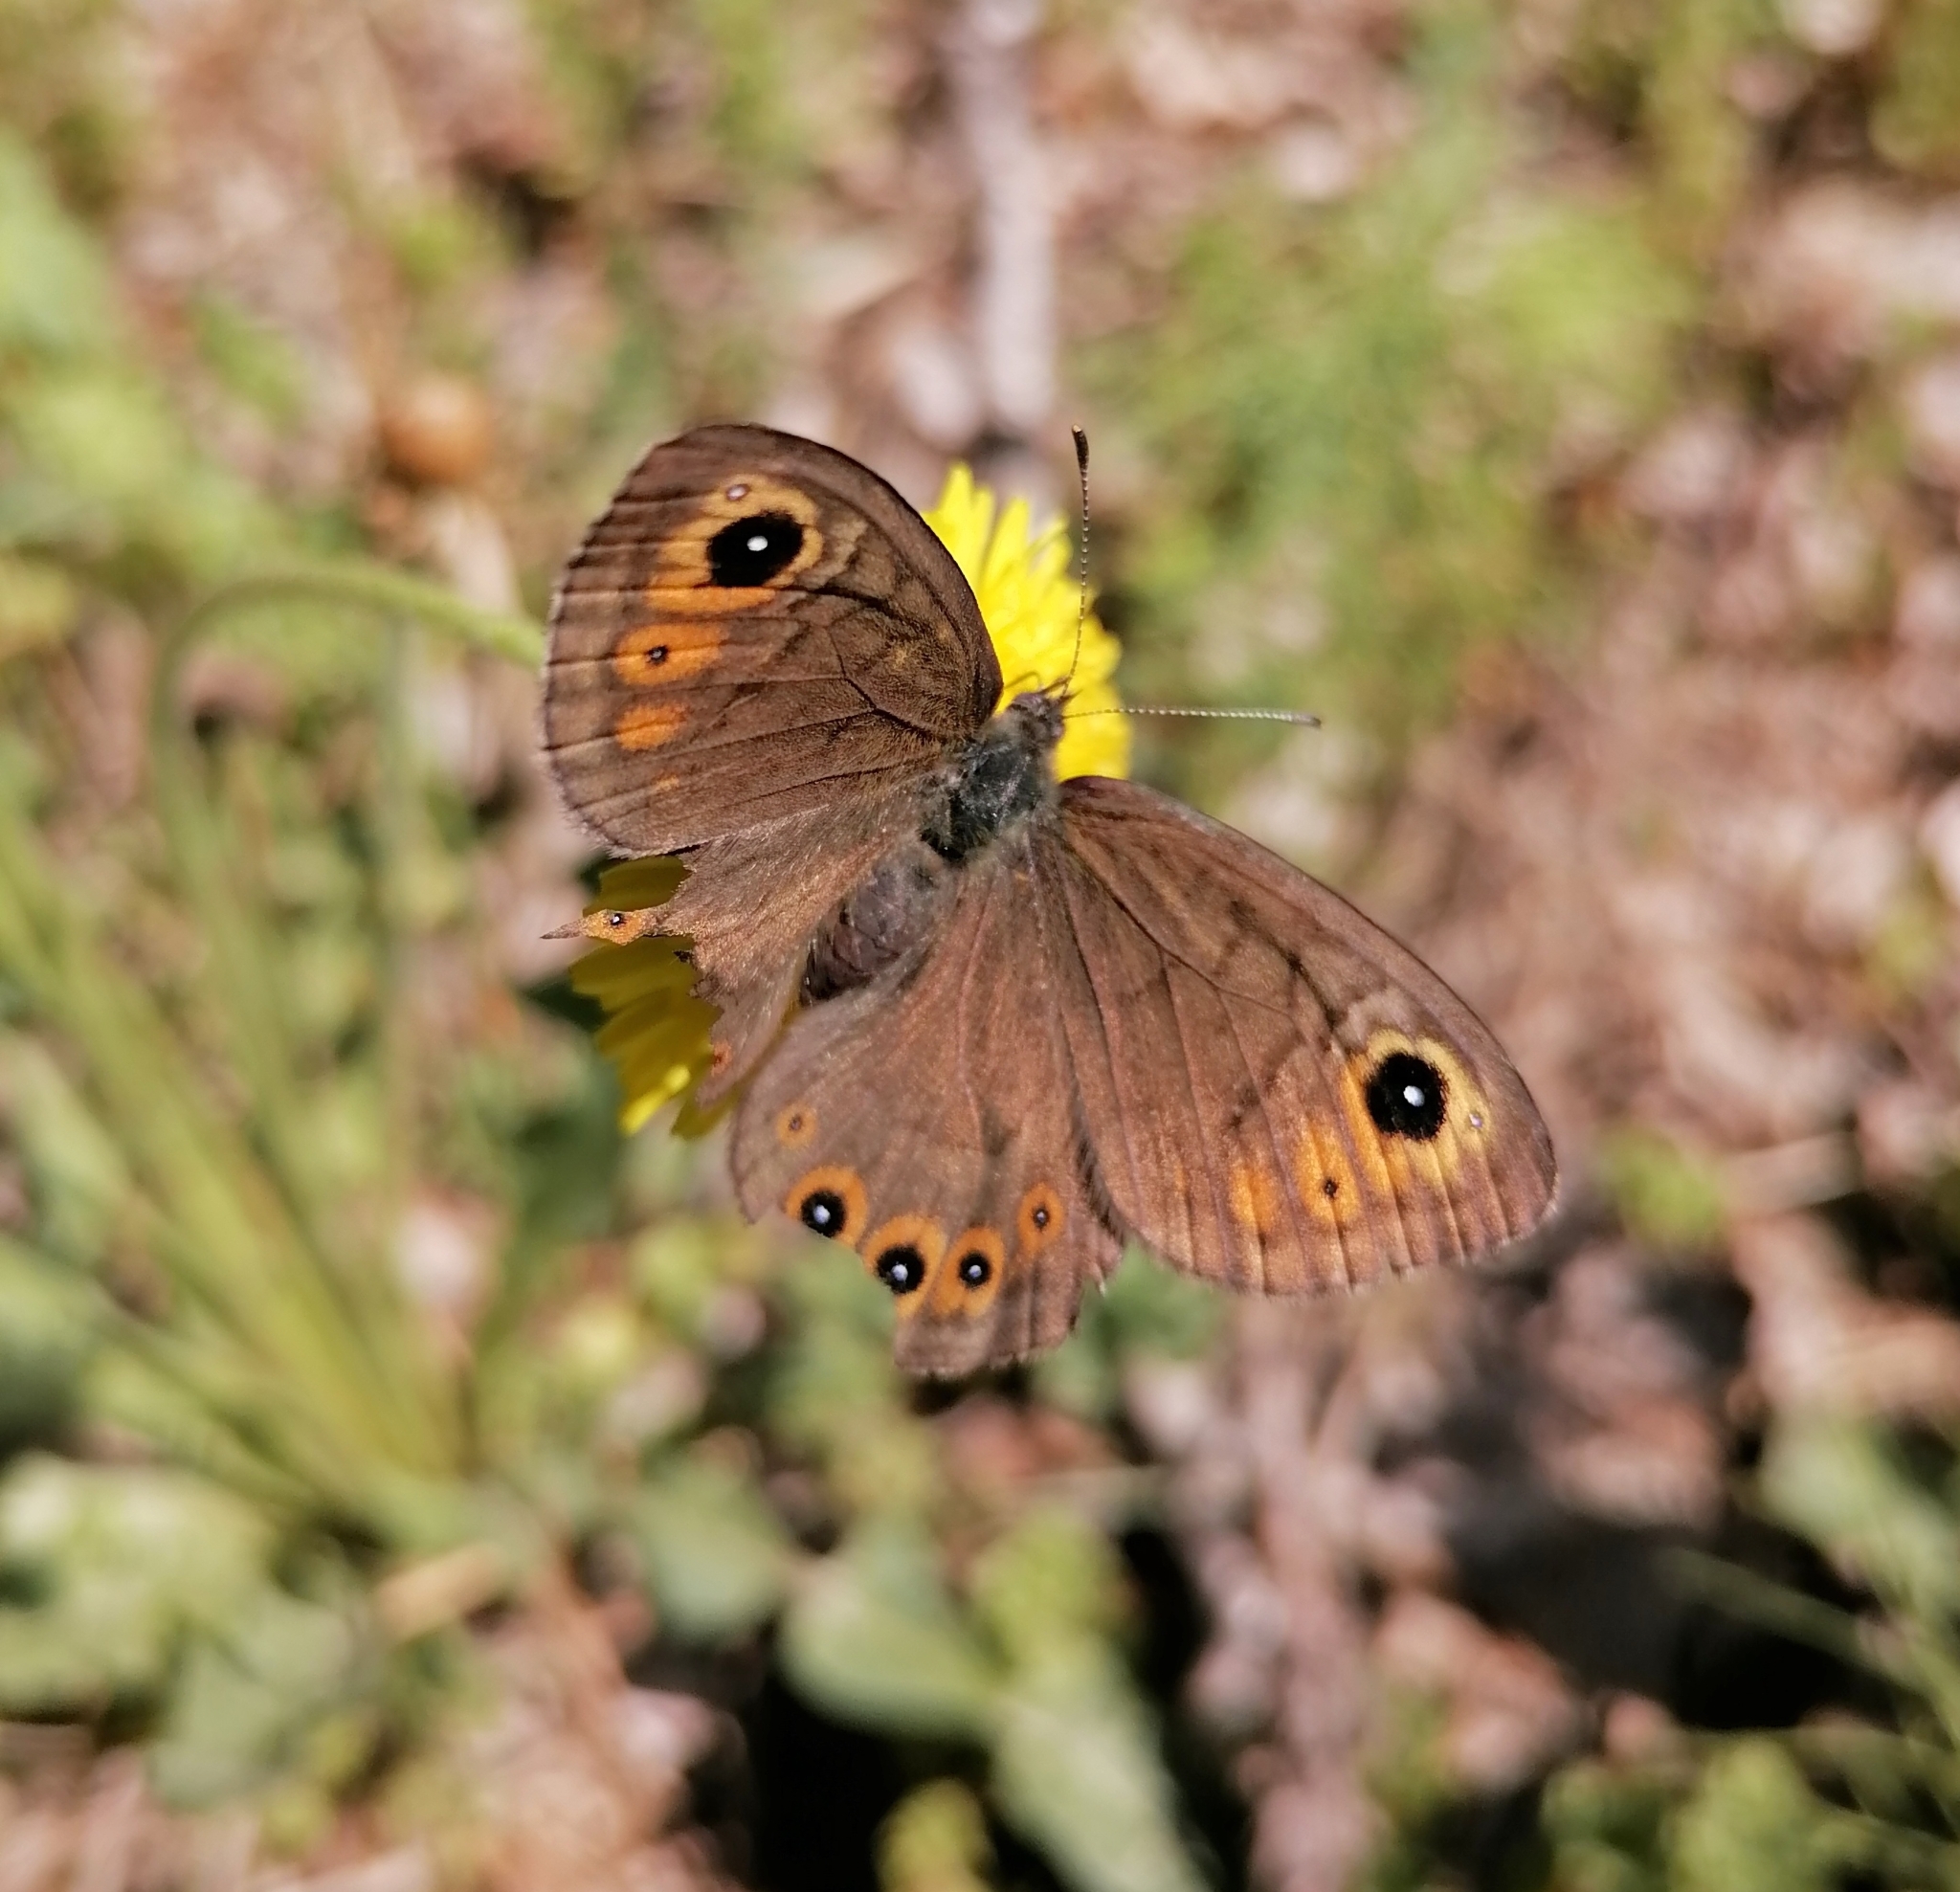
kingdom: Animalia
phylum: Arthropoda
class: Insecta
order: Lepidoptera
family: Nymphalidae
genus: Pararge
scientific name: Pararge petropolitana
